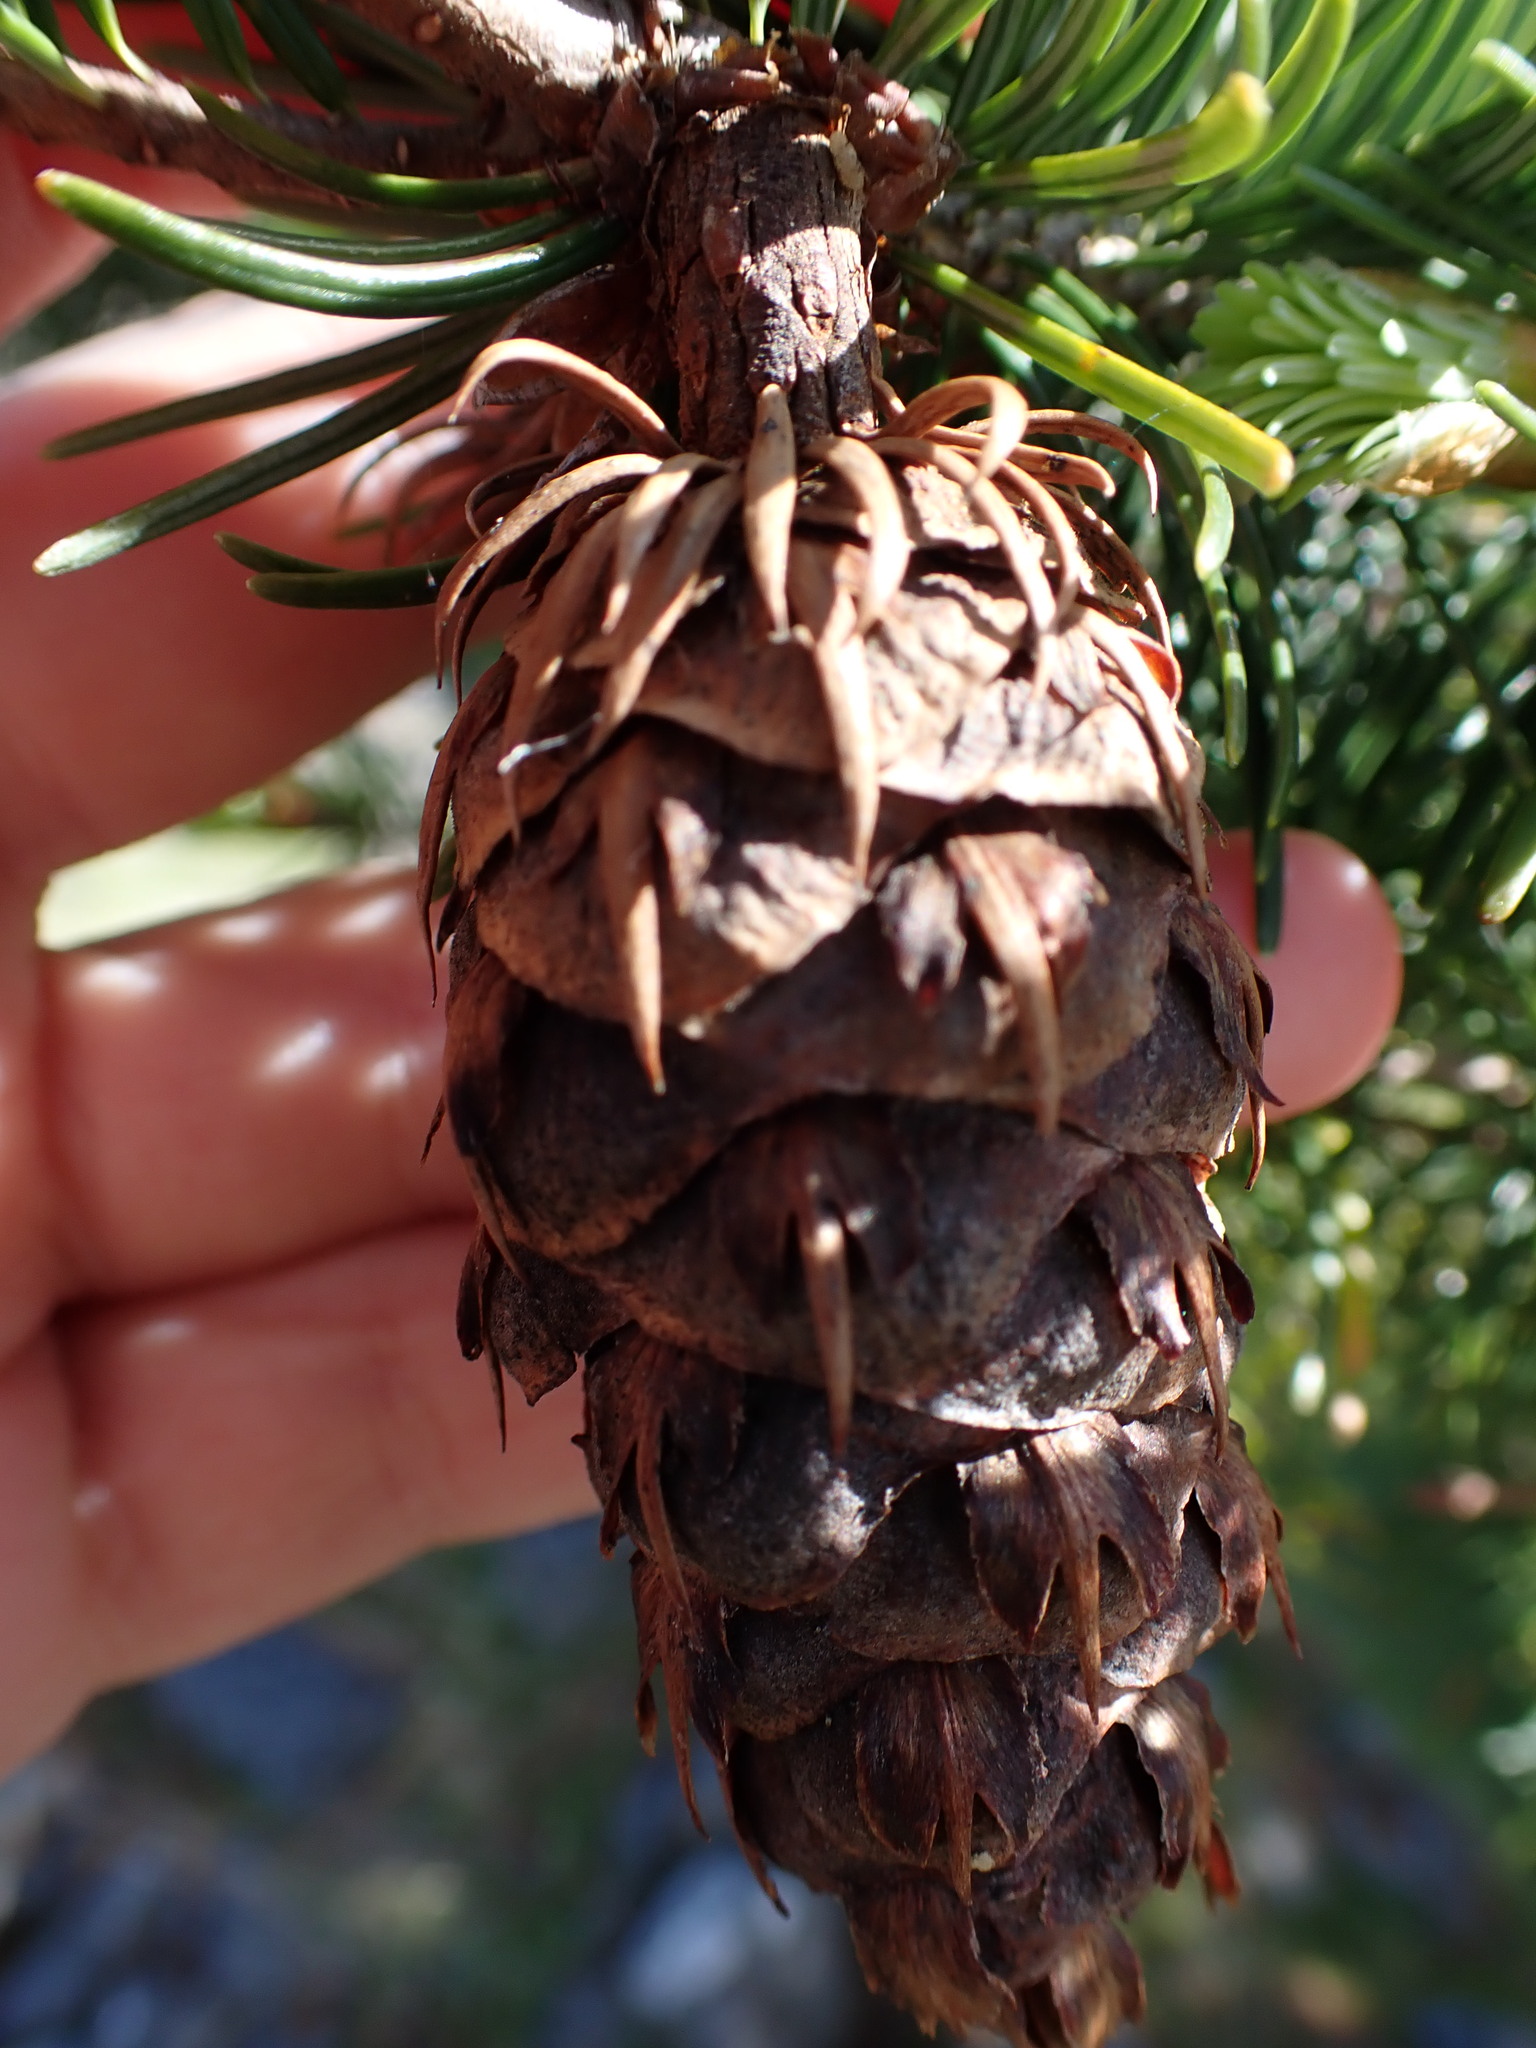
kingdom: Plantae
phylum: Tracheophyta
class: Pinopsida
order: Pinales
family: Pinaceae
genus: Pseudotsuga
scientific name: Pseudotsuga menziesii
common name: Douglas fir
